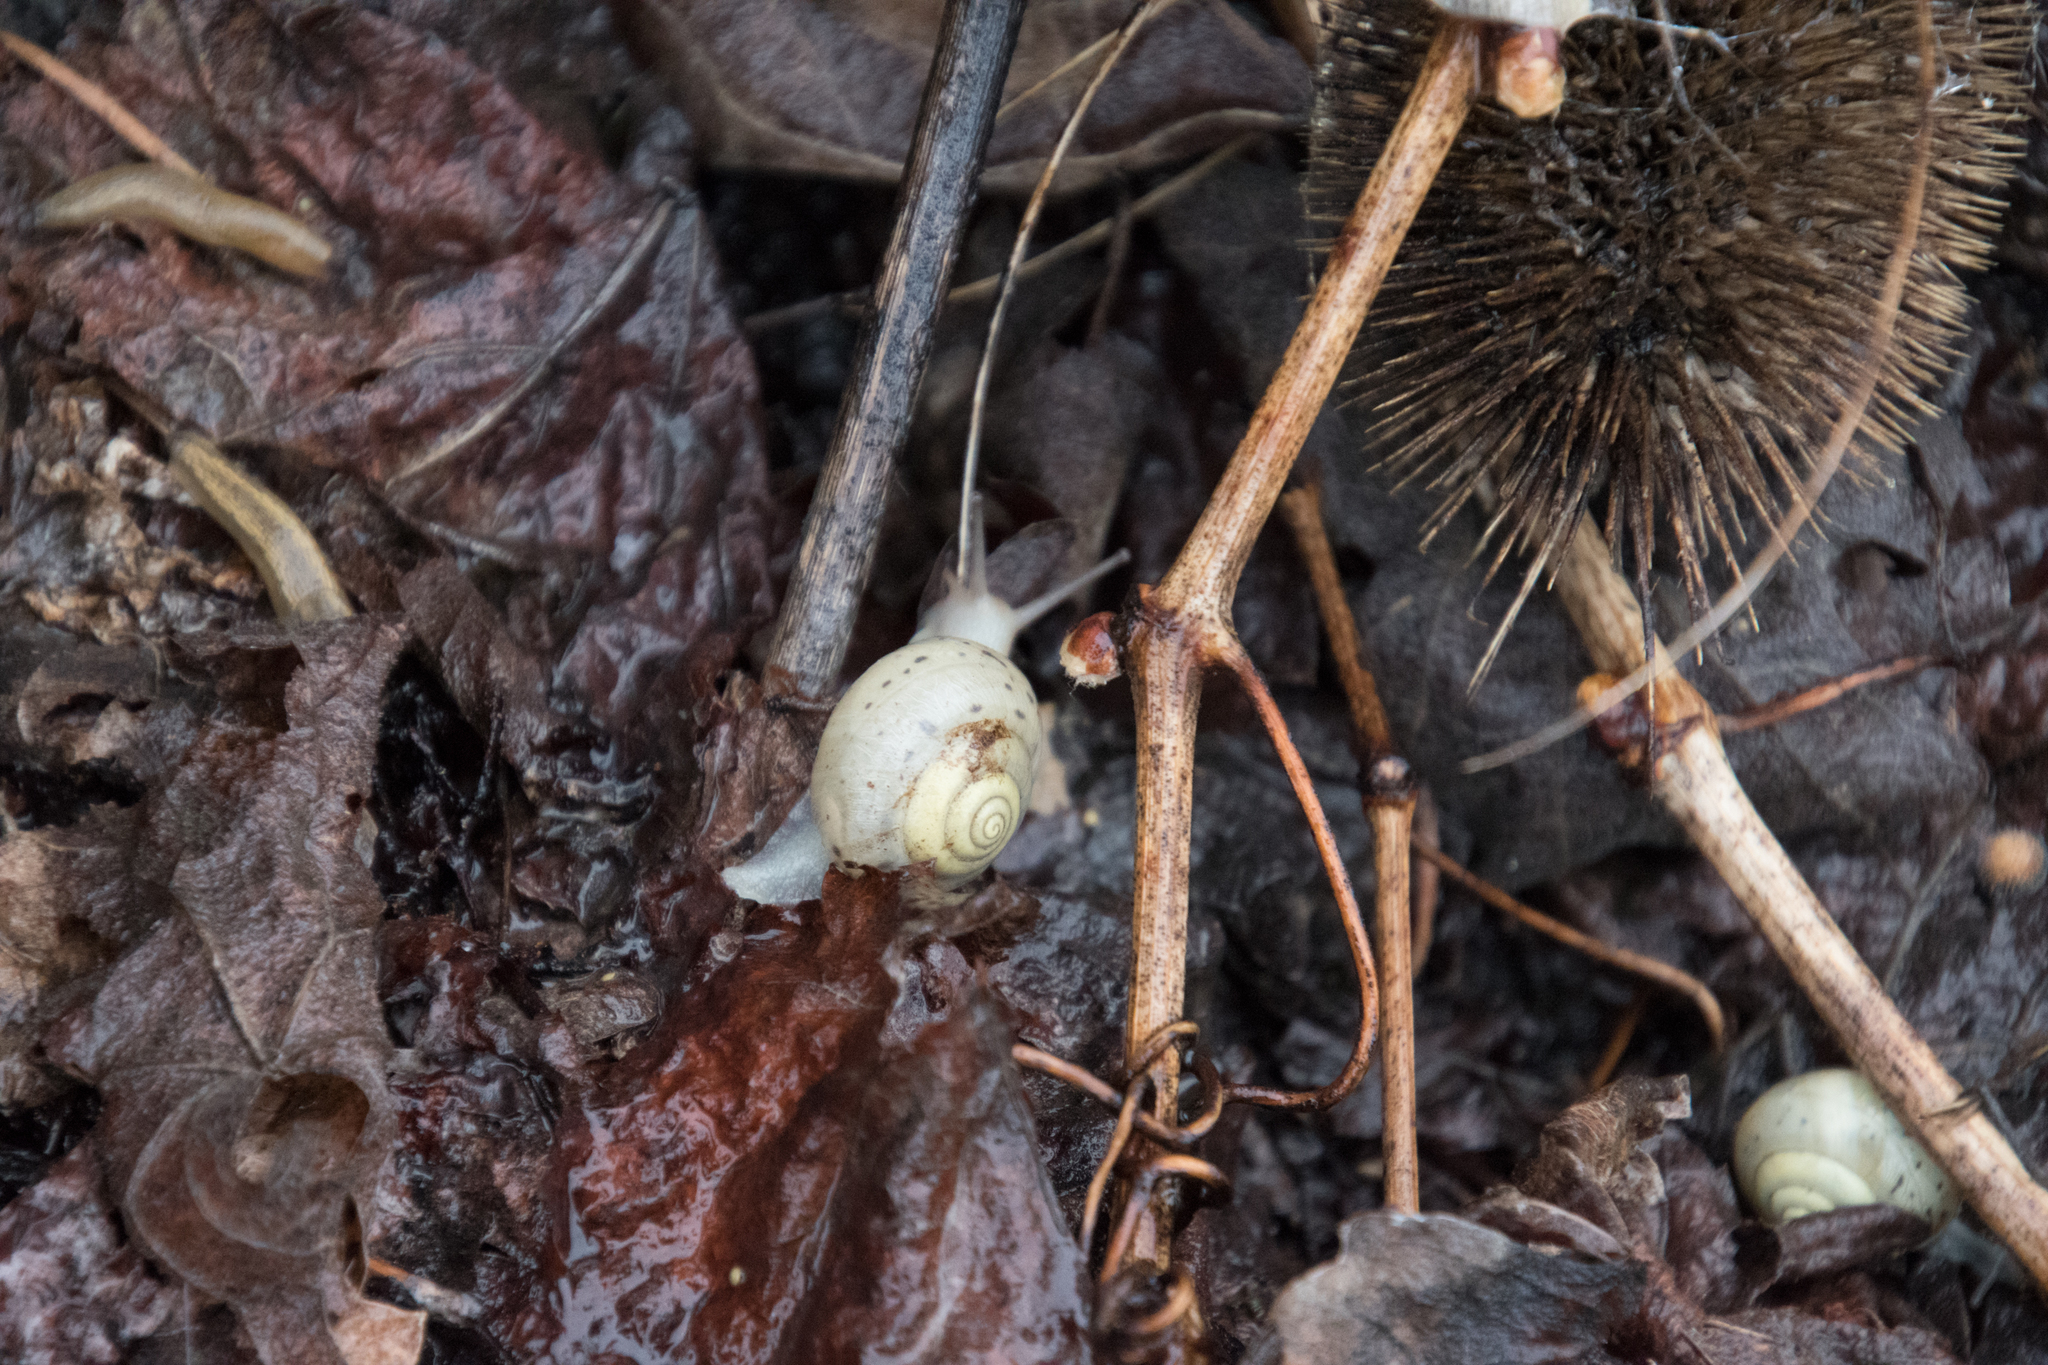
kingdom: Animalia
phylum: Mollusca
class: Gastropoda
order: Stylommatophora
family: Camaenidae
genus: Fruticicola
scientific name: Fruticicola fruticum
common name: Bush snail
